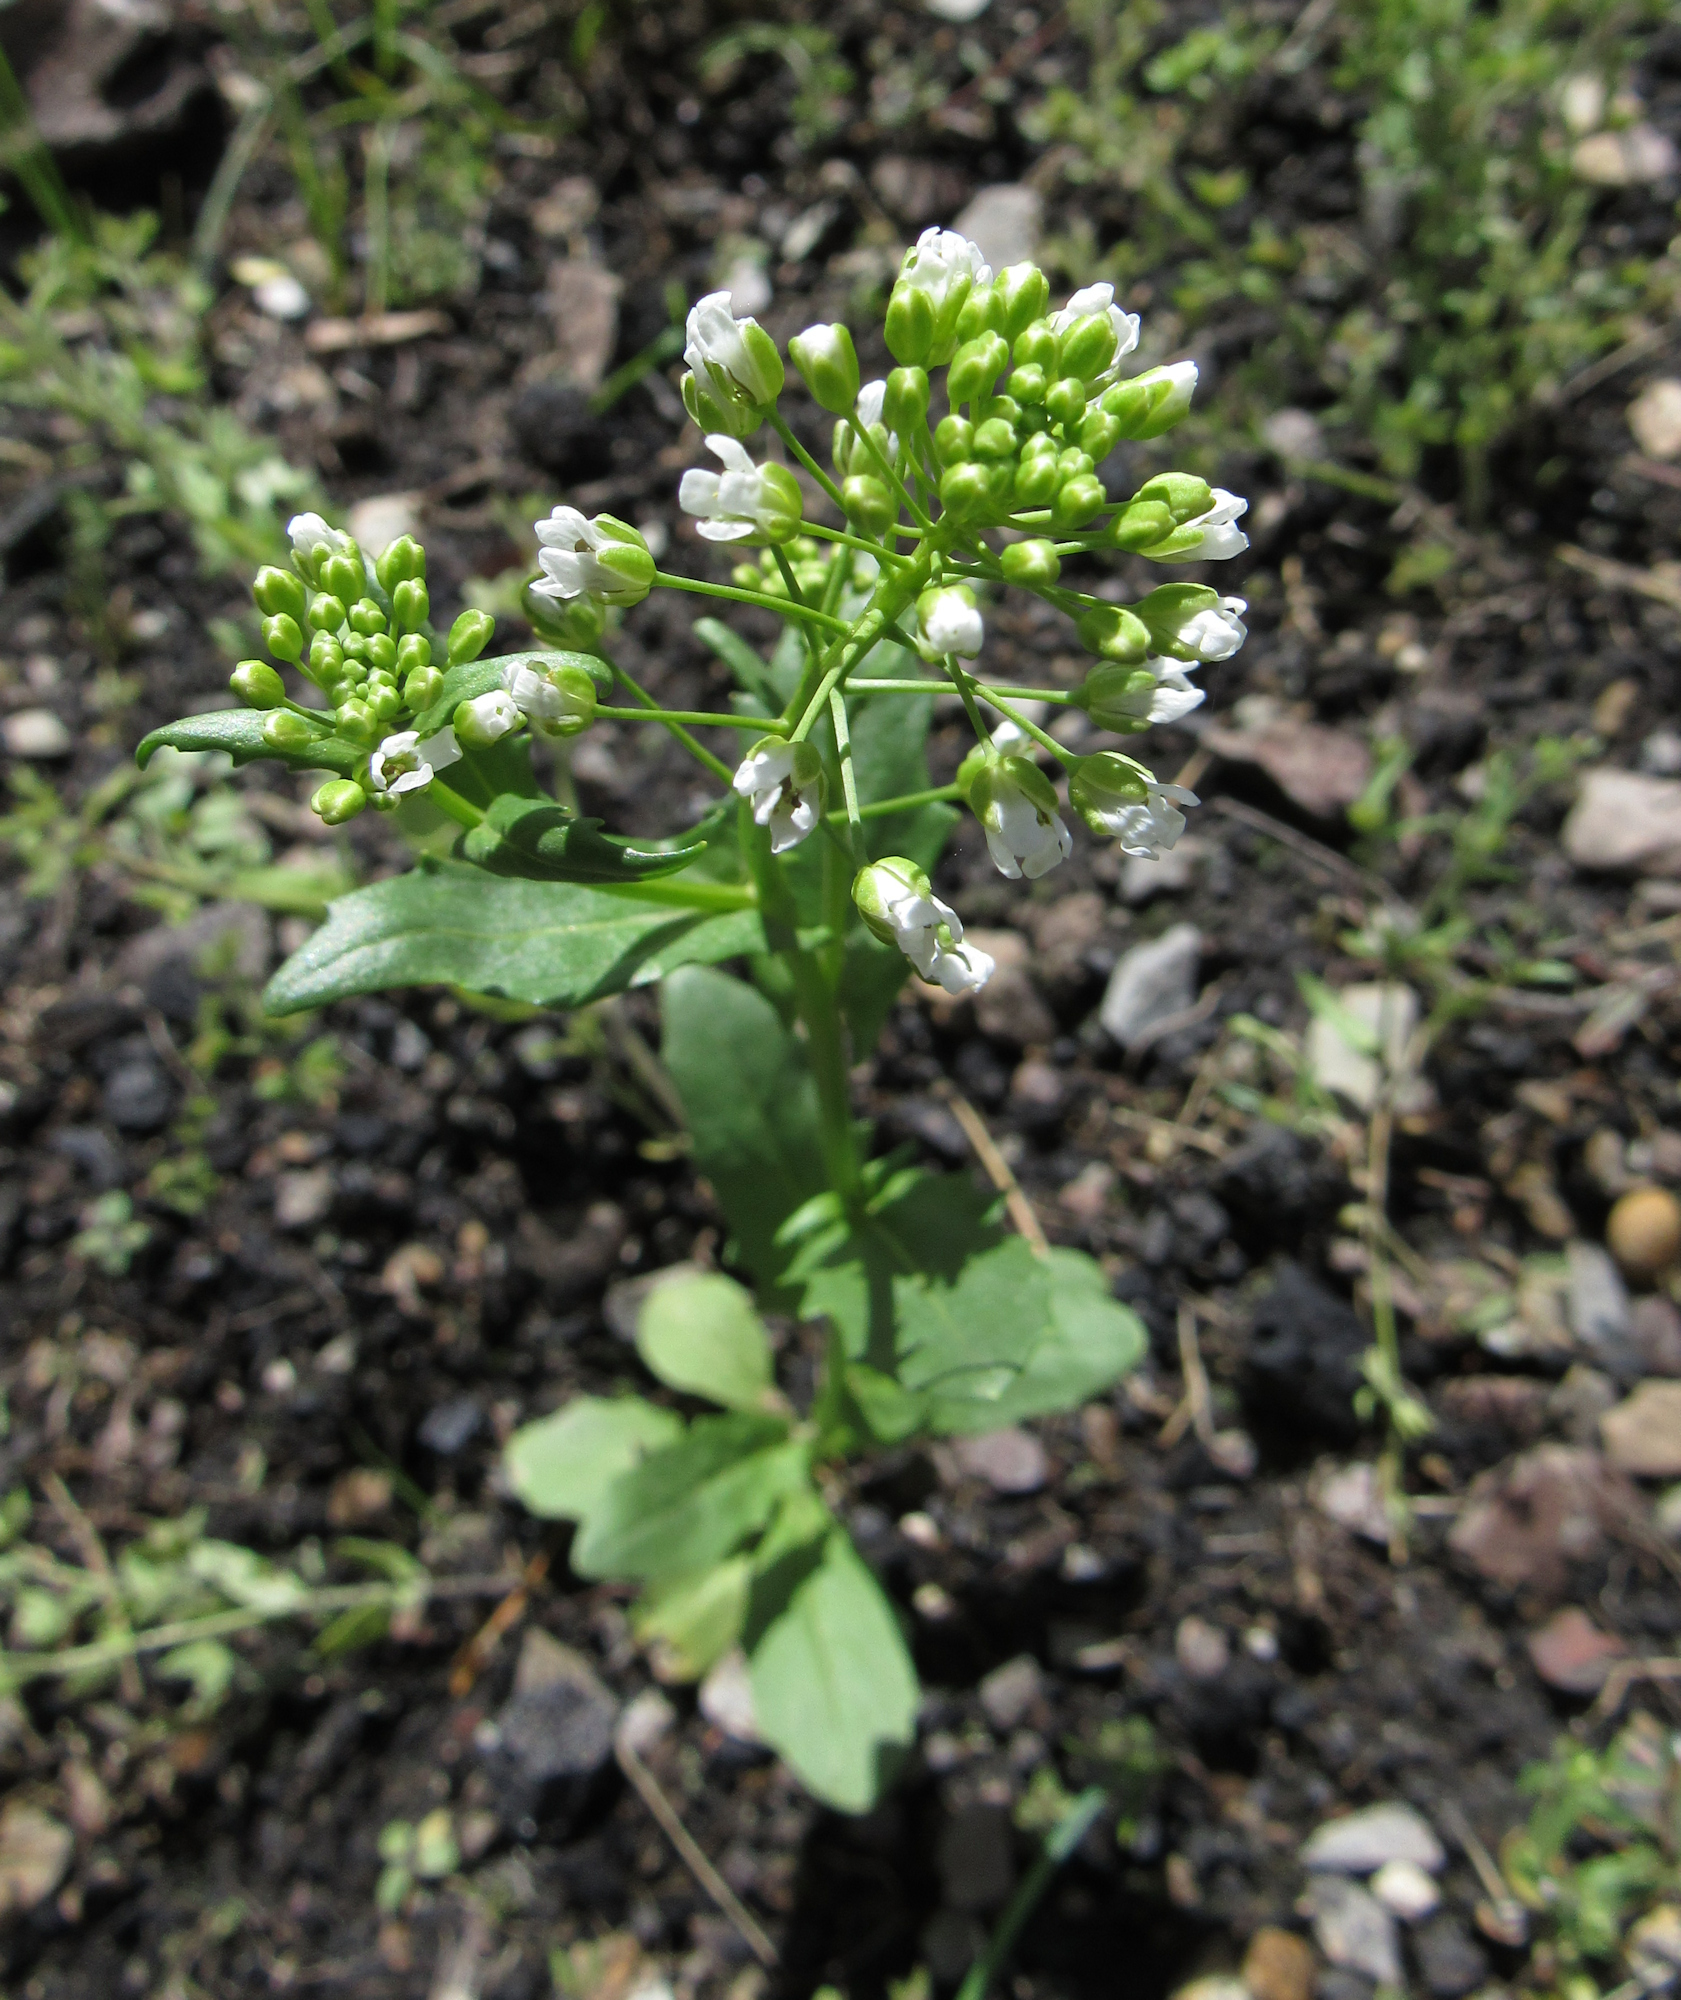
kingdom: Plantae
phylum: Tracheophyta
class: Magnoliopsida
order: Brassicales
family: Brassicaceae
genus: Thlaspi
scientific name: Thlaspi arvense
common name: Field pennycress
